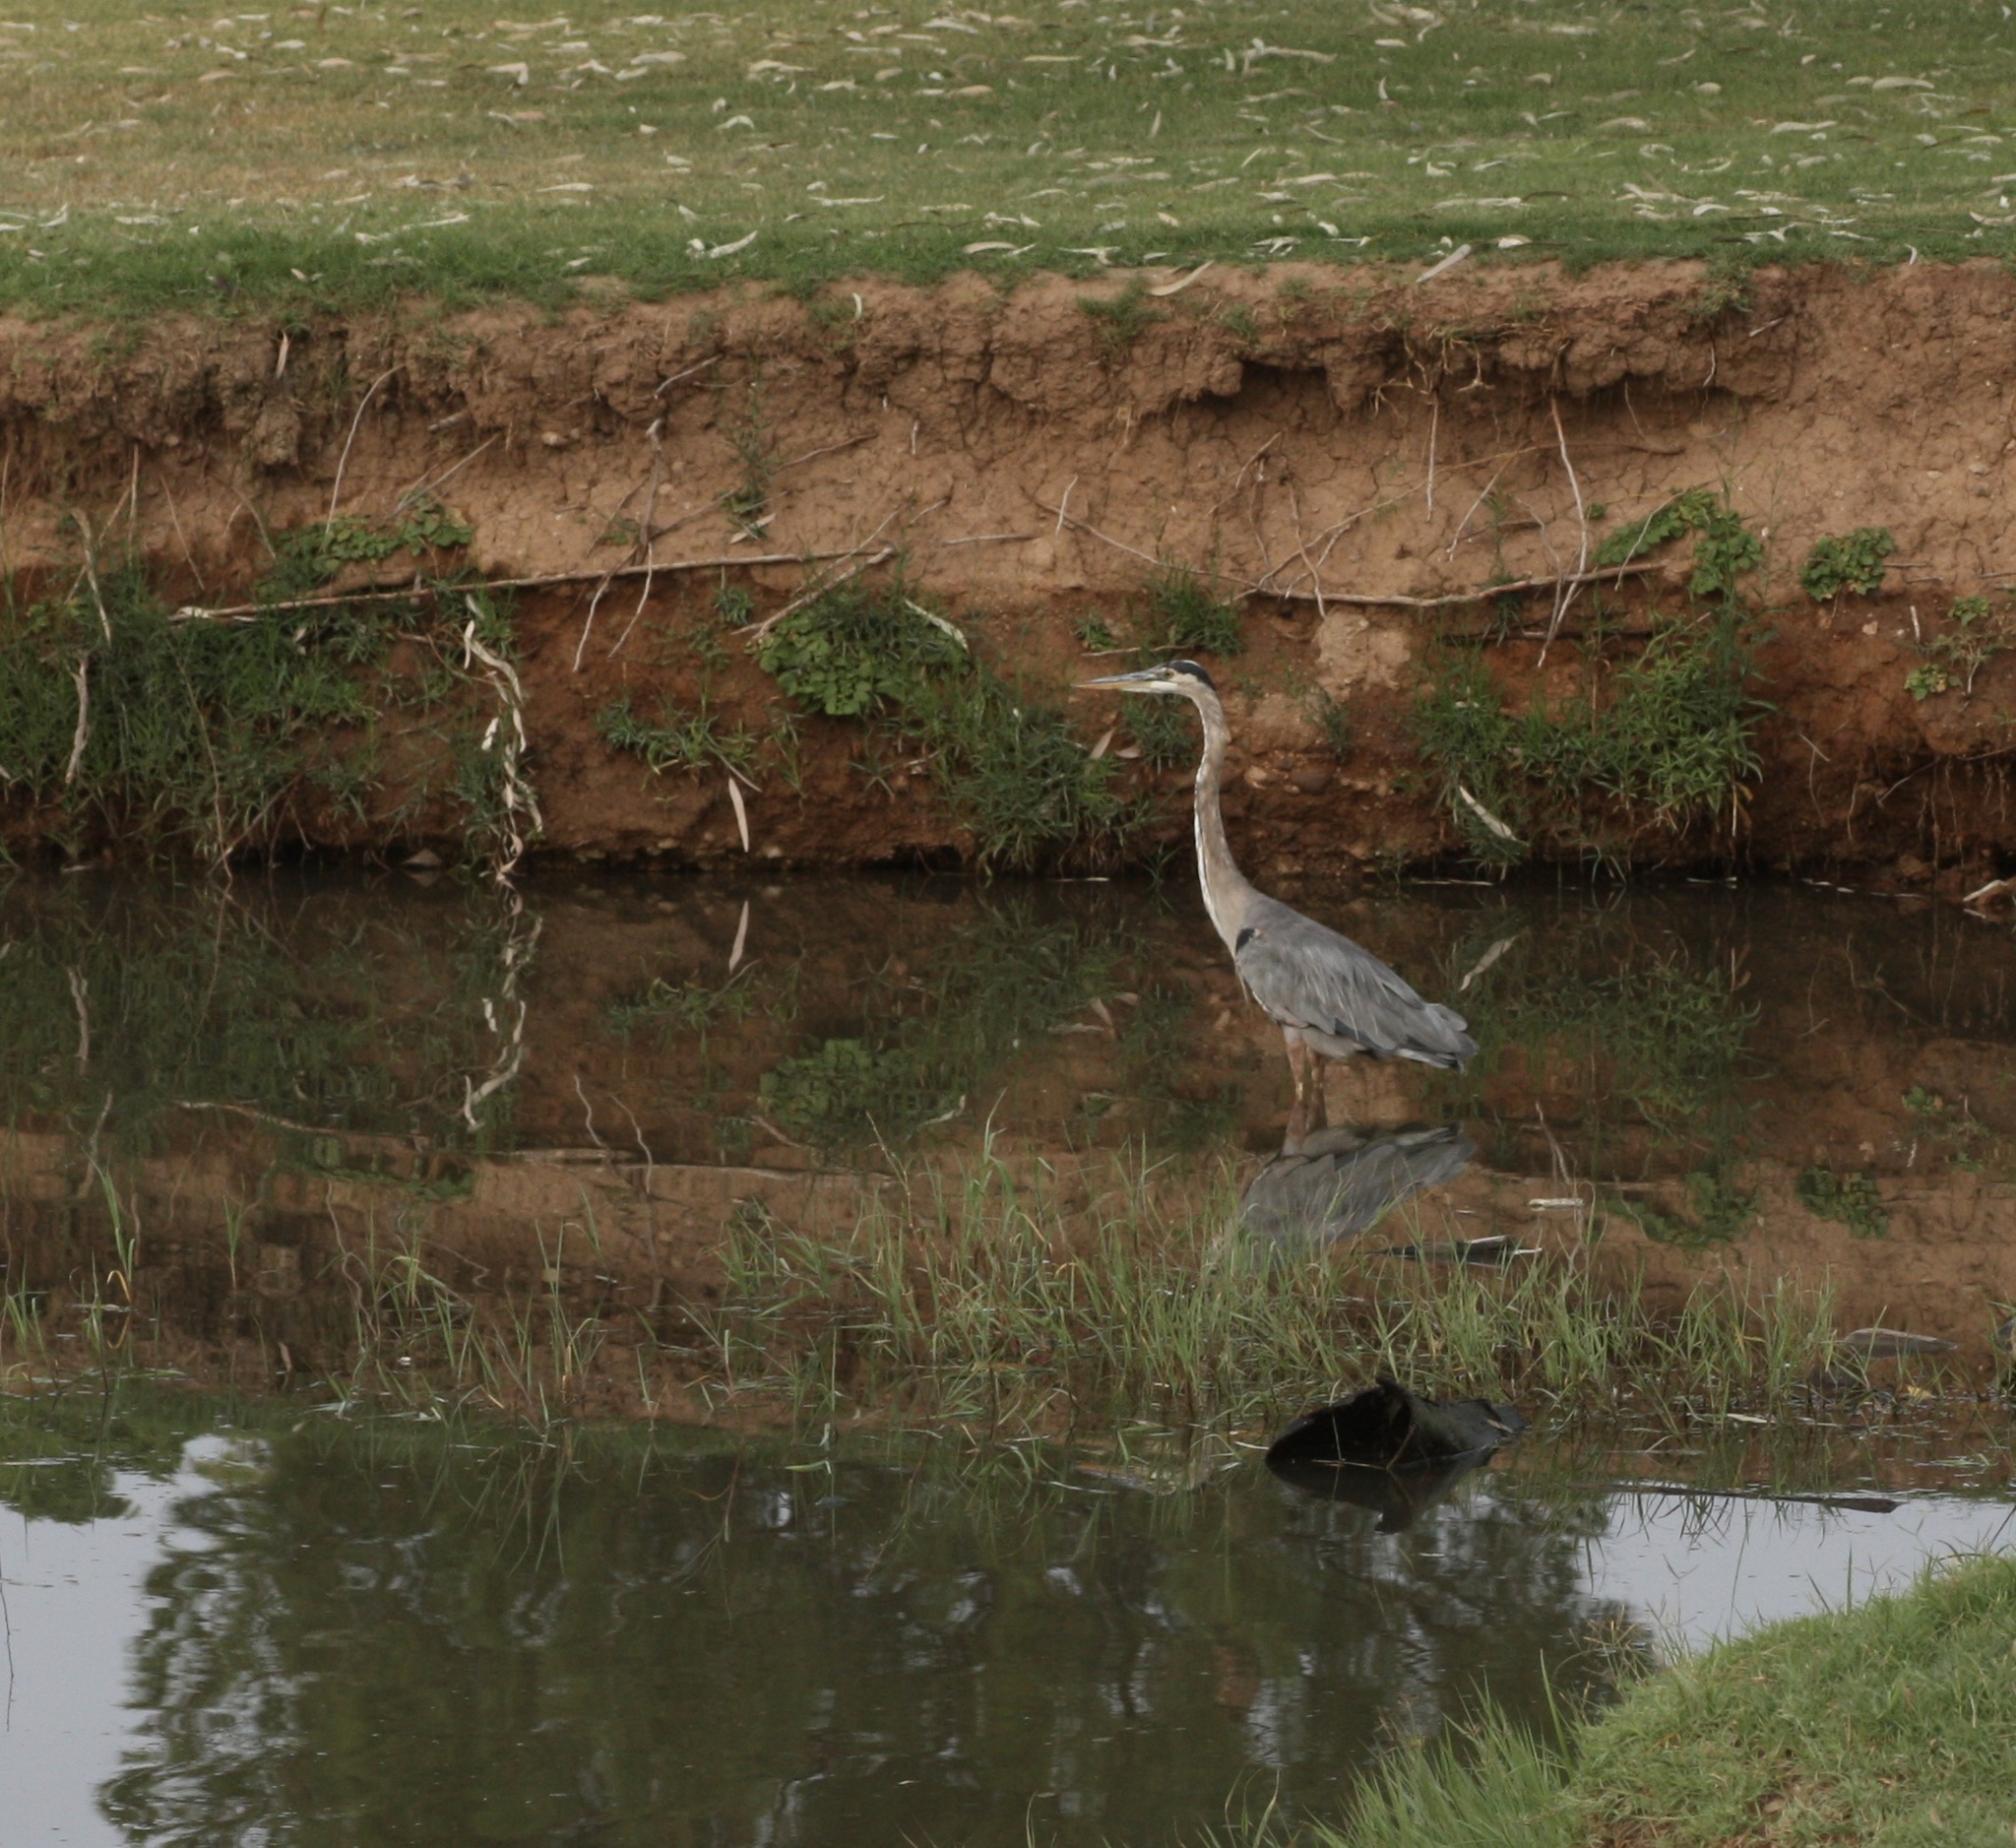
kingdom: Animalia
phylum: Chordata
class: Aves
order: Pelecaniformes
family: Ardeidae
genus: Ardea
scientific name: Ardea herodias
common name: Great blue heron
